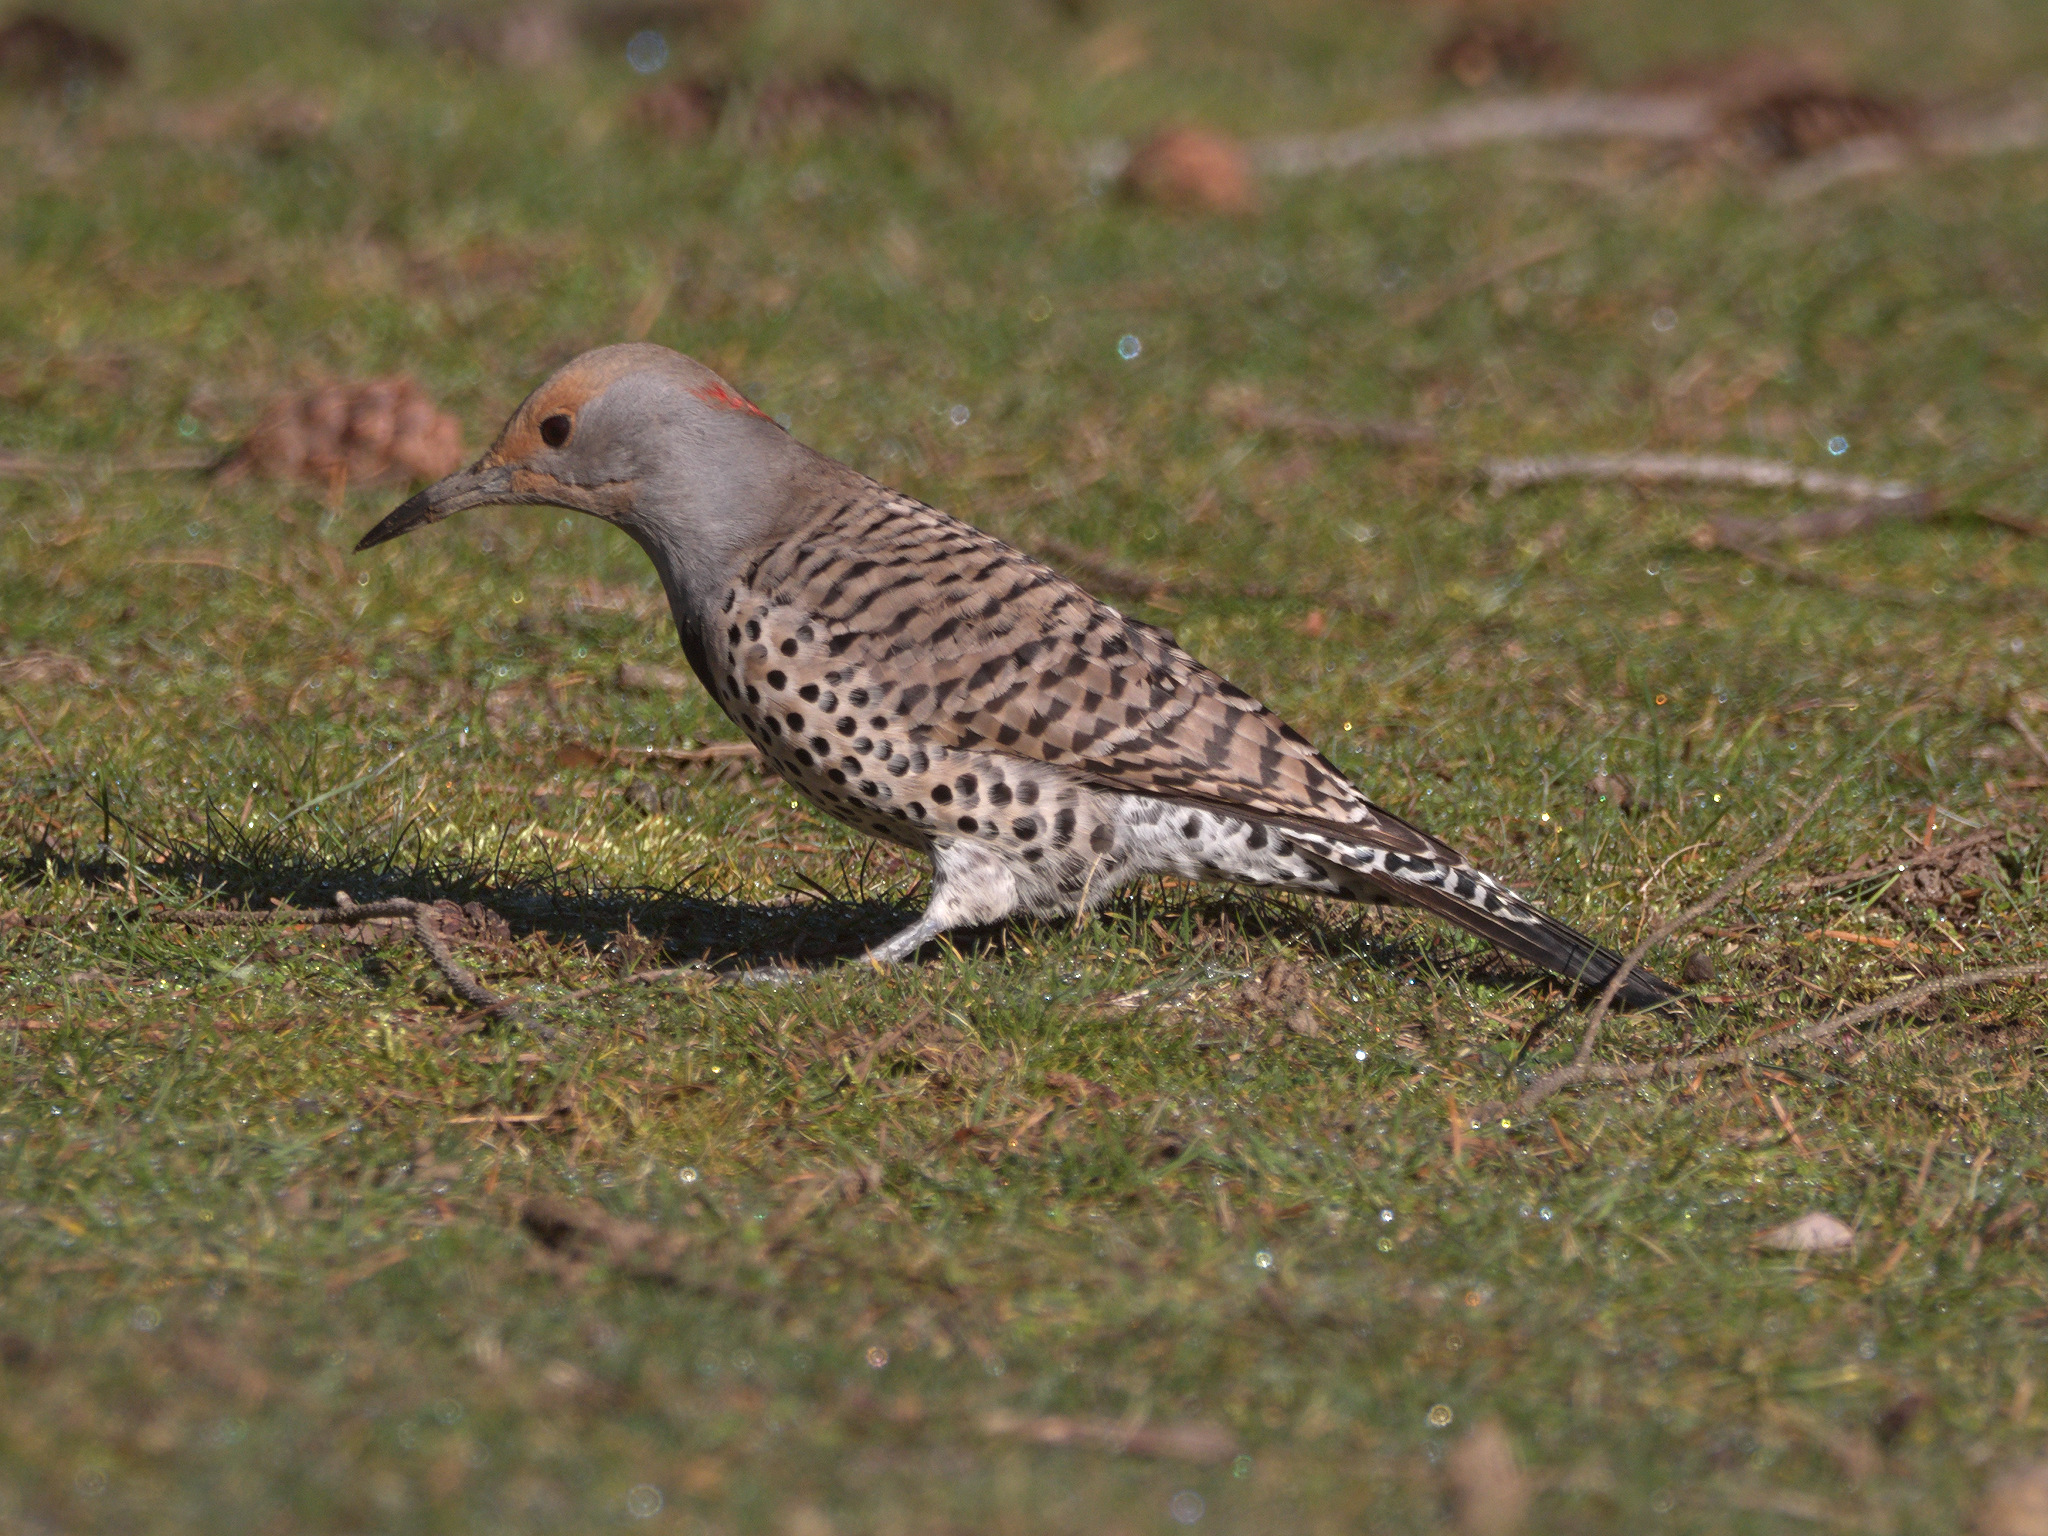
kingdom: Animalia
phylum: Chordata
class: Aves
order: Piciformes
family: Picidae
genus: Colaptes
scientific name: Colaptes
